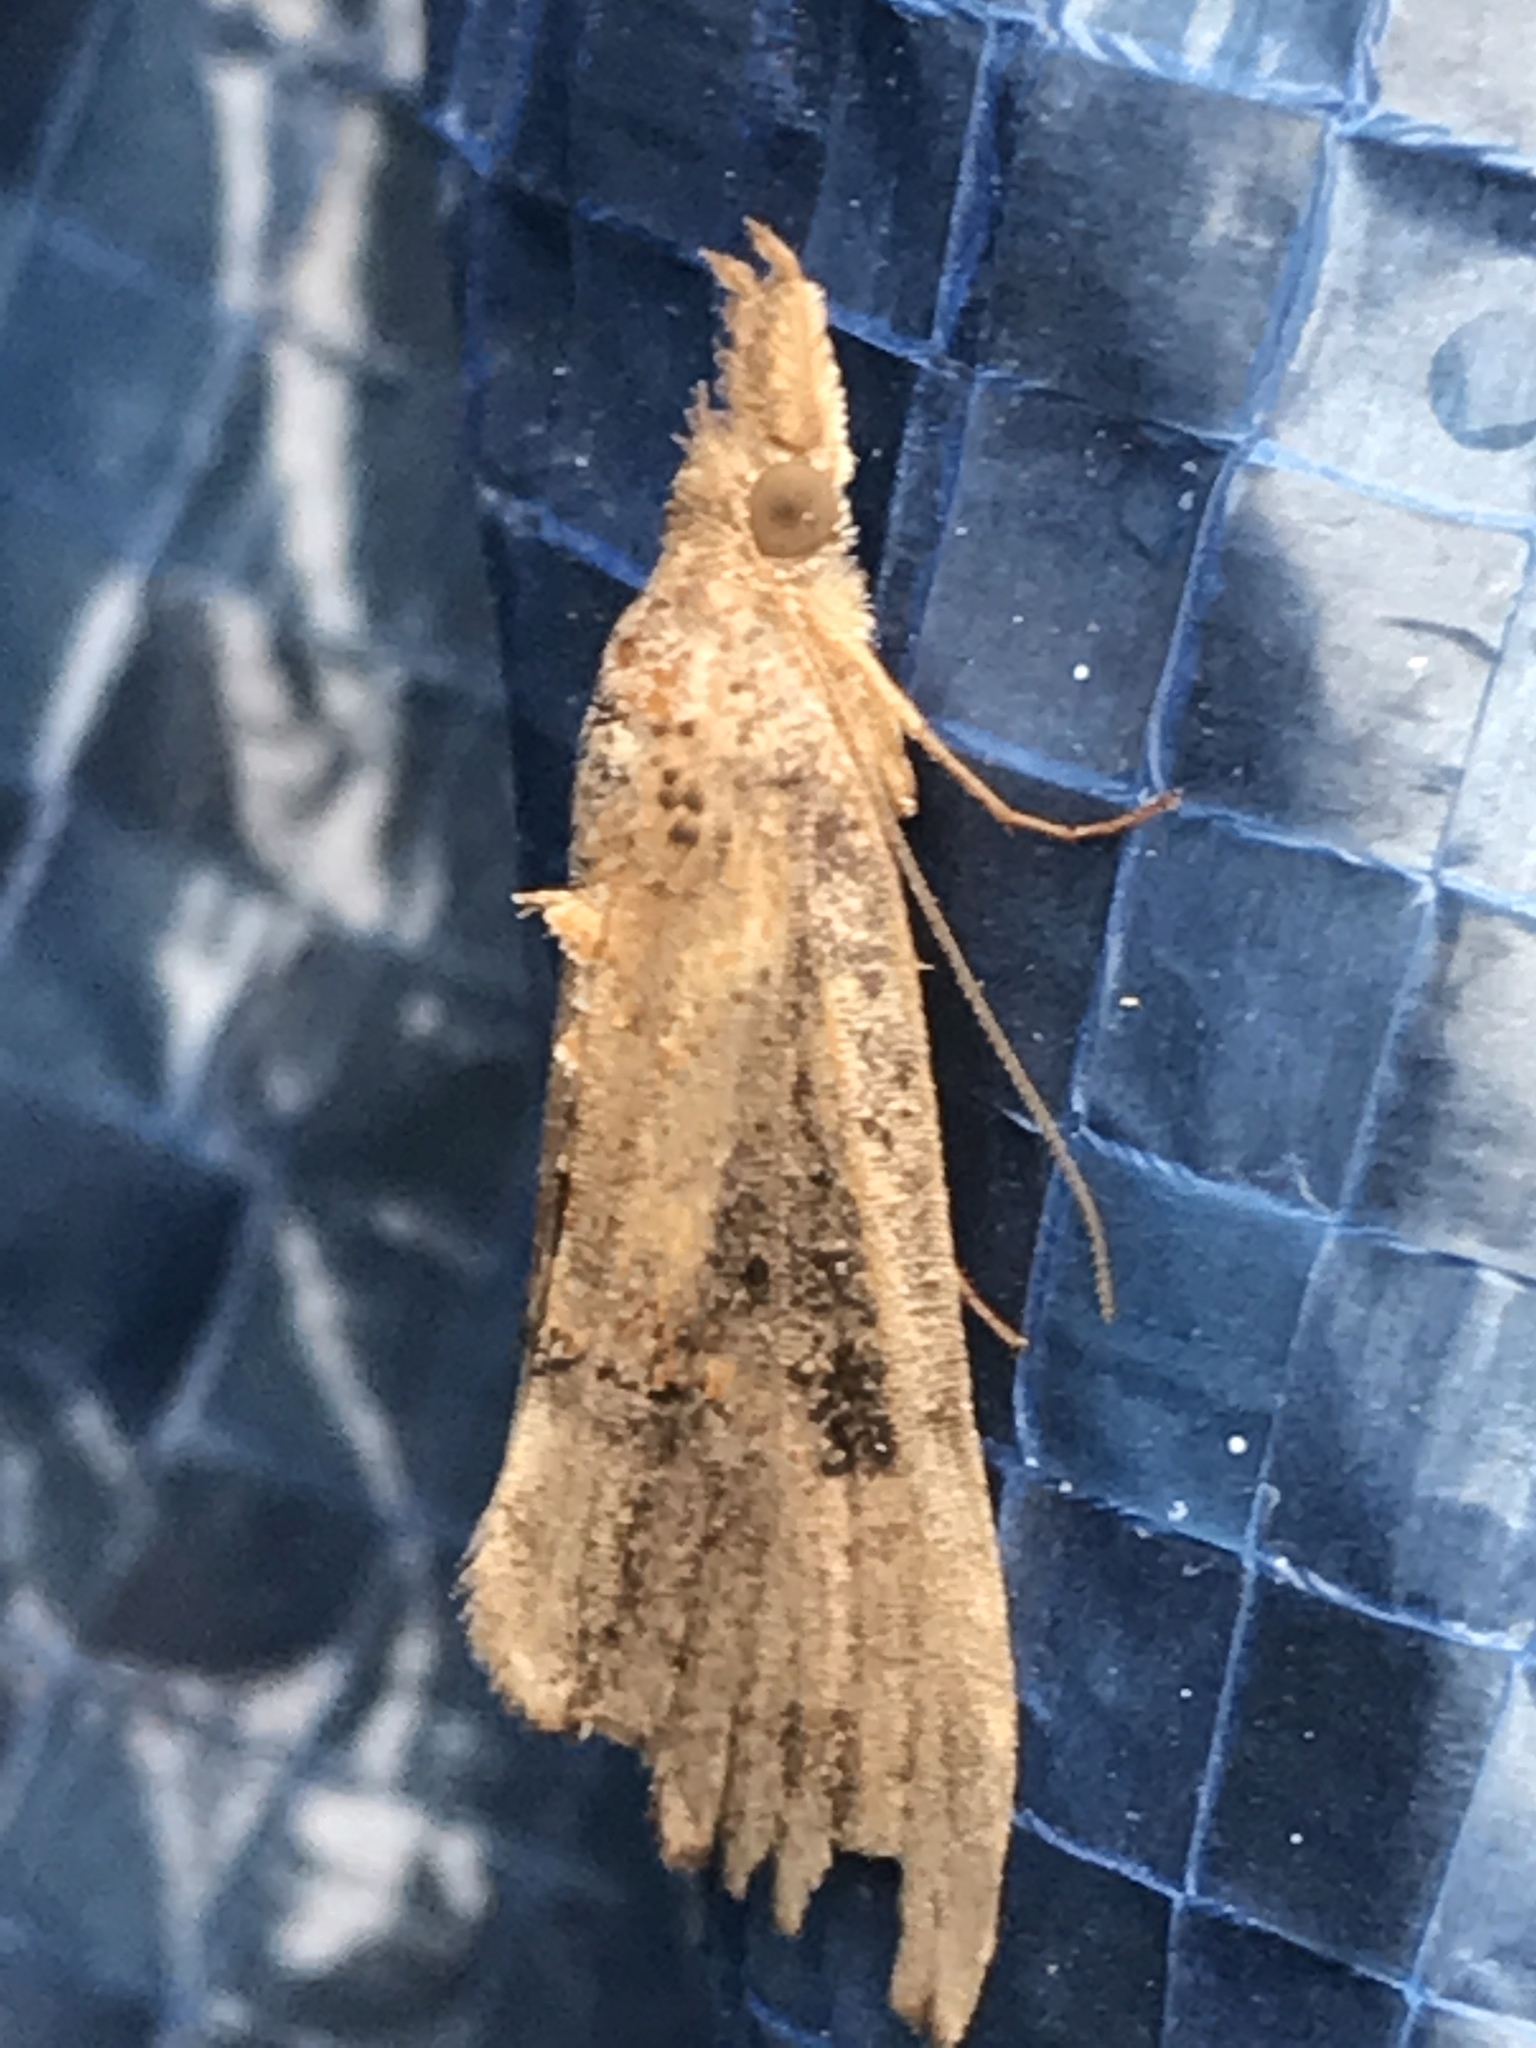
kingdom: Animalia
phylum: Arthropoda
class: Insecta
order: Lepidoptera
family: Erebidae
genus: Hypena
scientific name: Hypena scabra
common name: Green cloverworm
